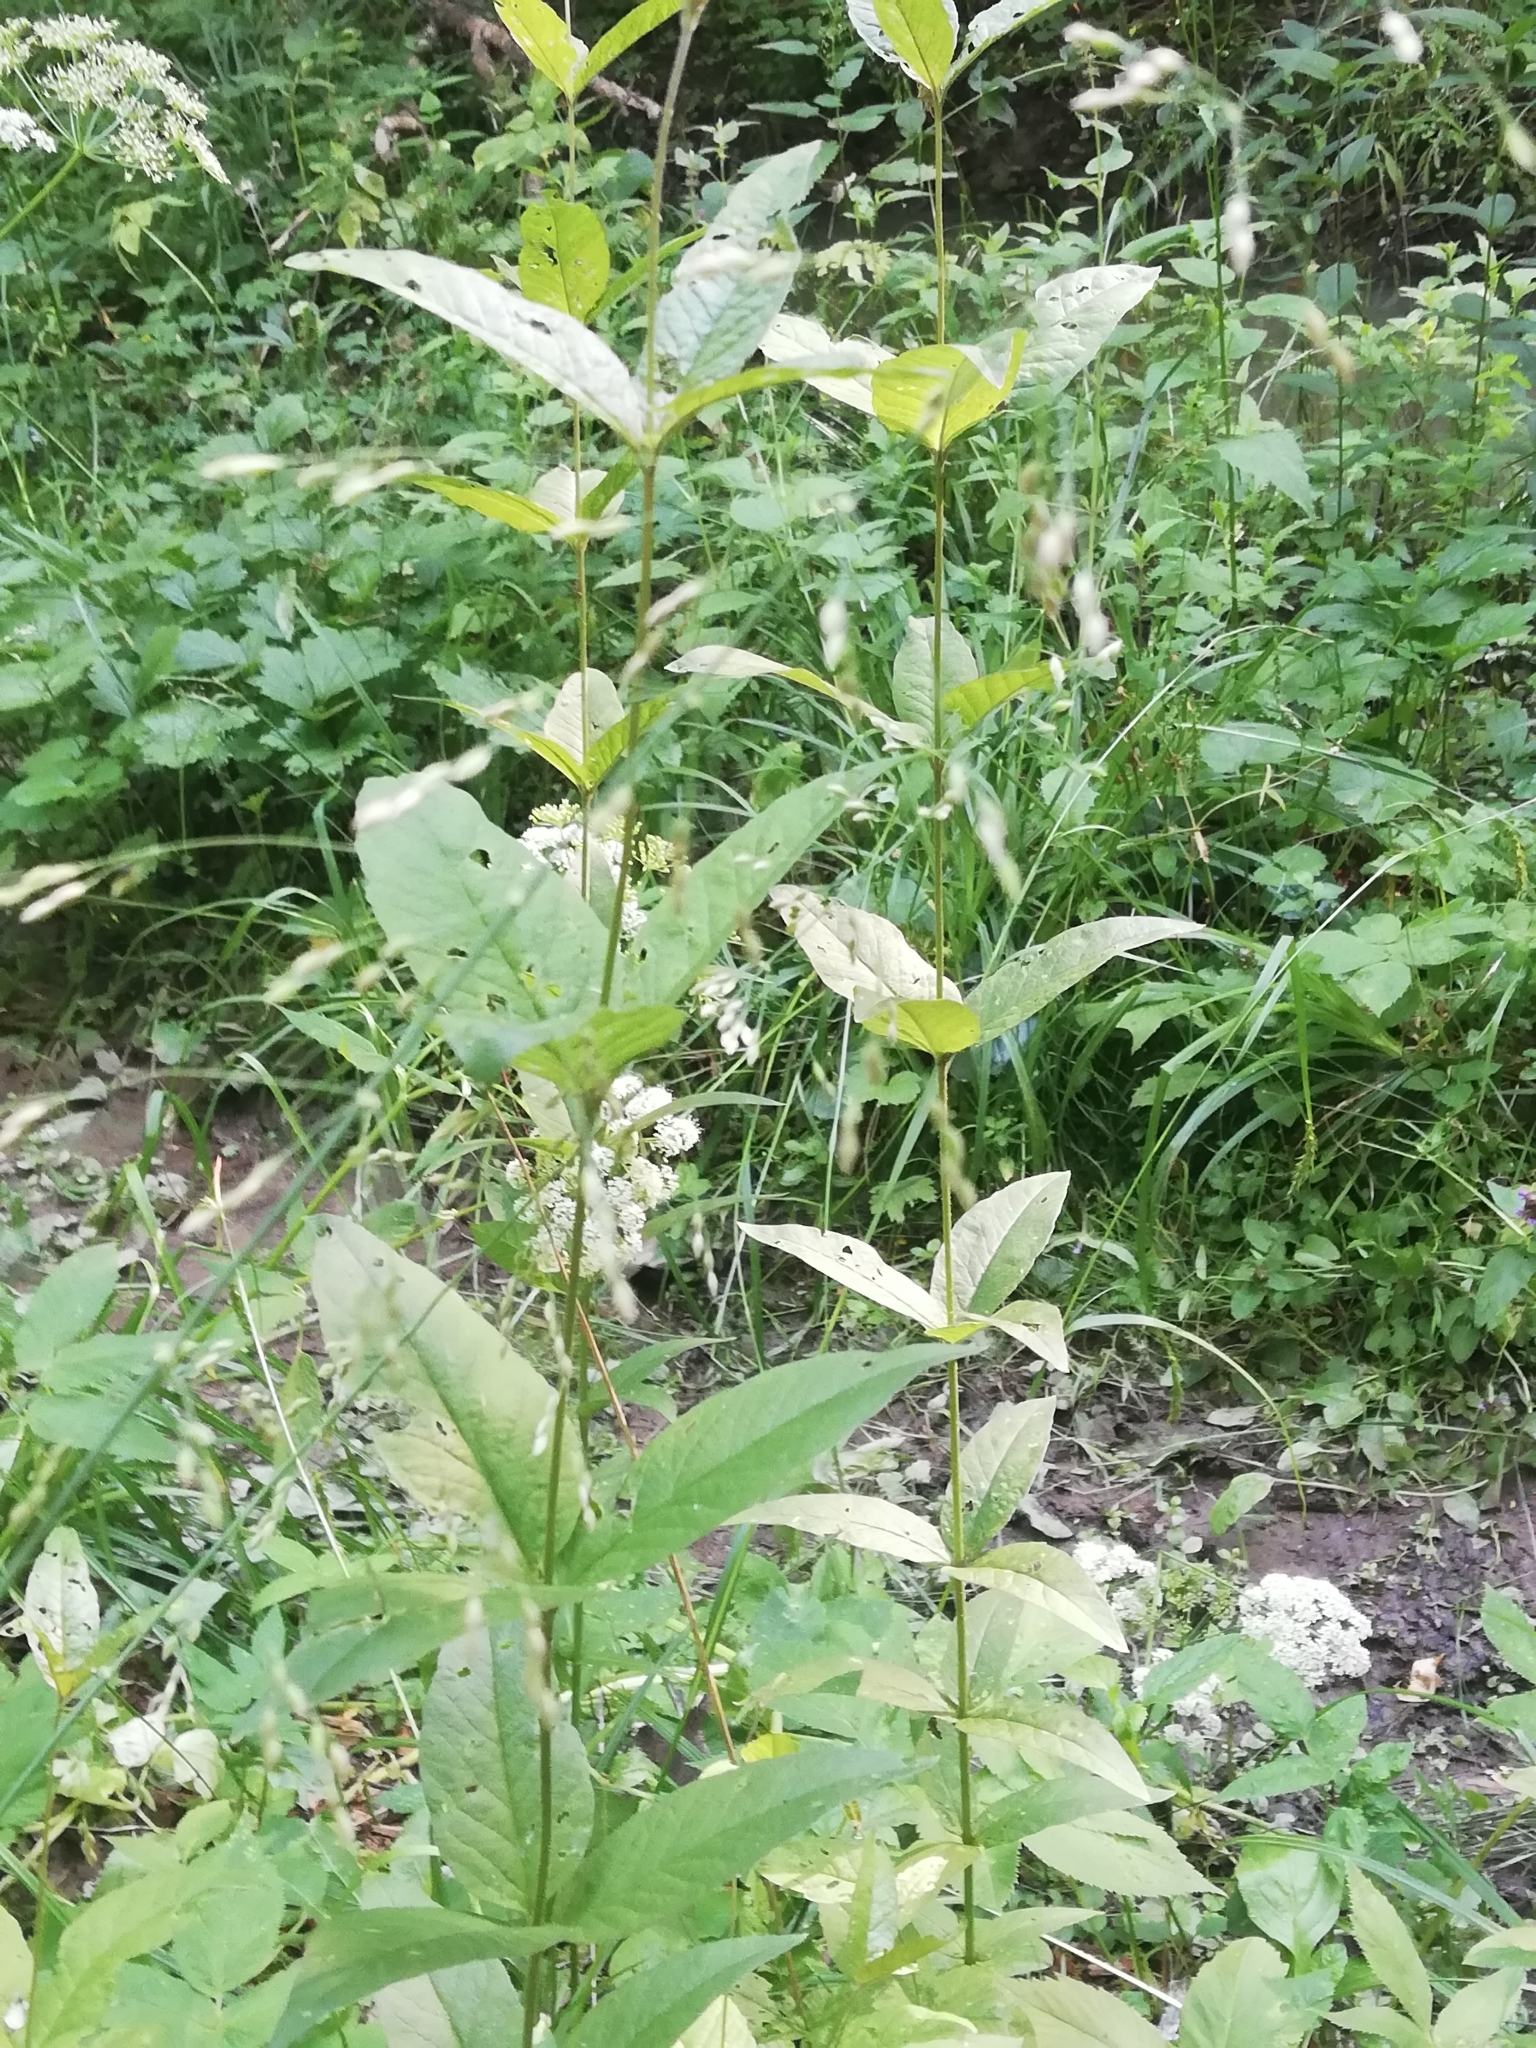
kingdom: Plantae
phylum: Tracheophyta
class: Magnoliopsida
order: Ericales
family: Primulaceae
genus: Lysimachia
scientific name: Lysimachia vulgaris
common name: Yellow loosestrife
